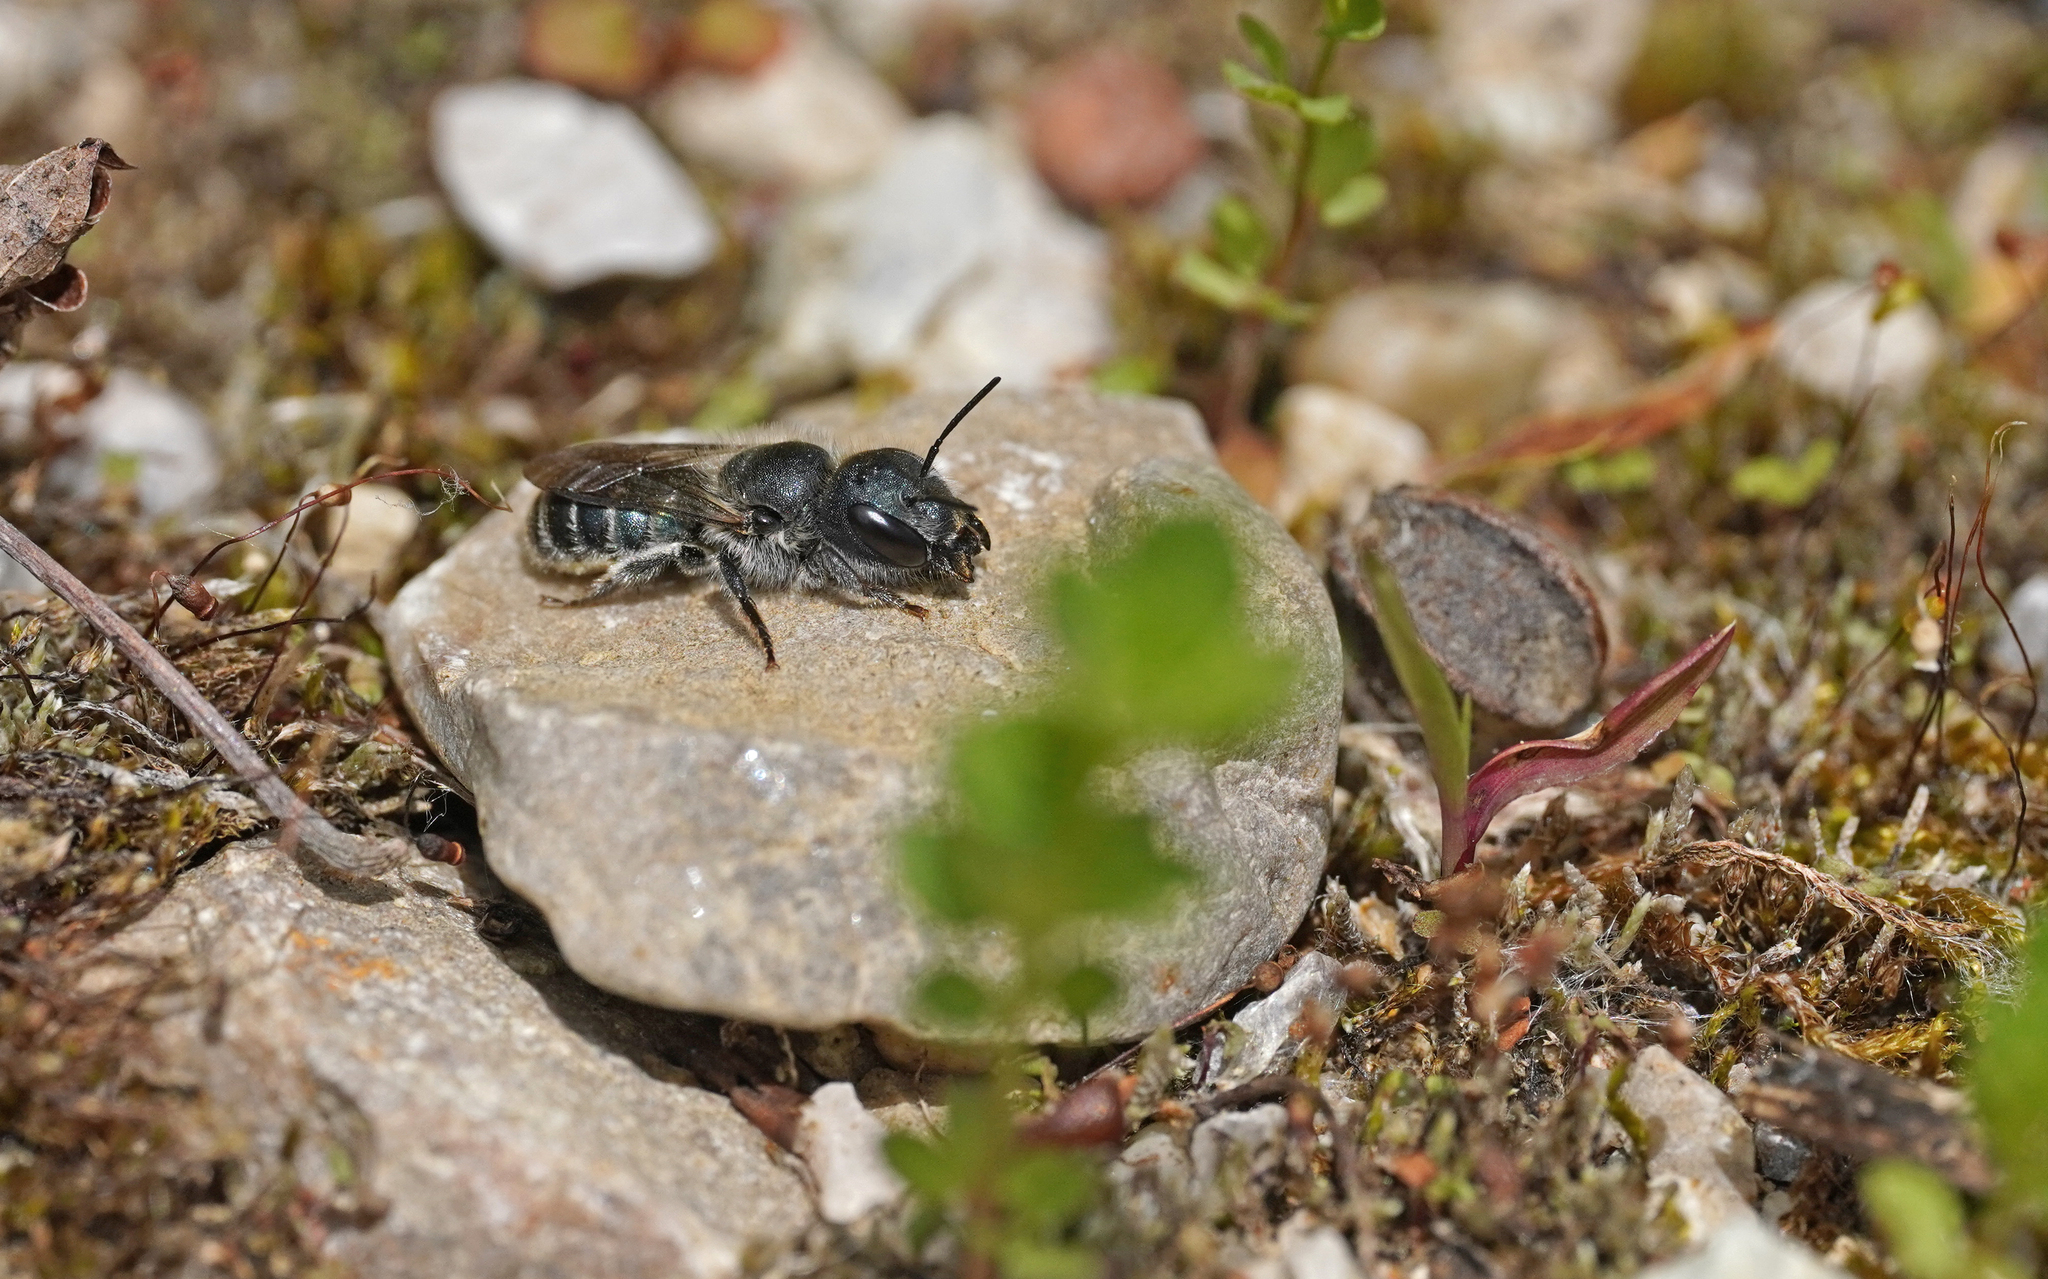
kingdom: Animalia
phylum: Arthropoda
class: Insecta
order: Hymenoptera
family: Megachilidae
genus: Osmia
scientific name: Osmia caerulescens
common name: Blue mason bee
